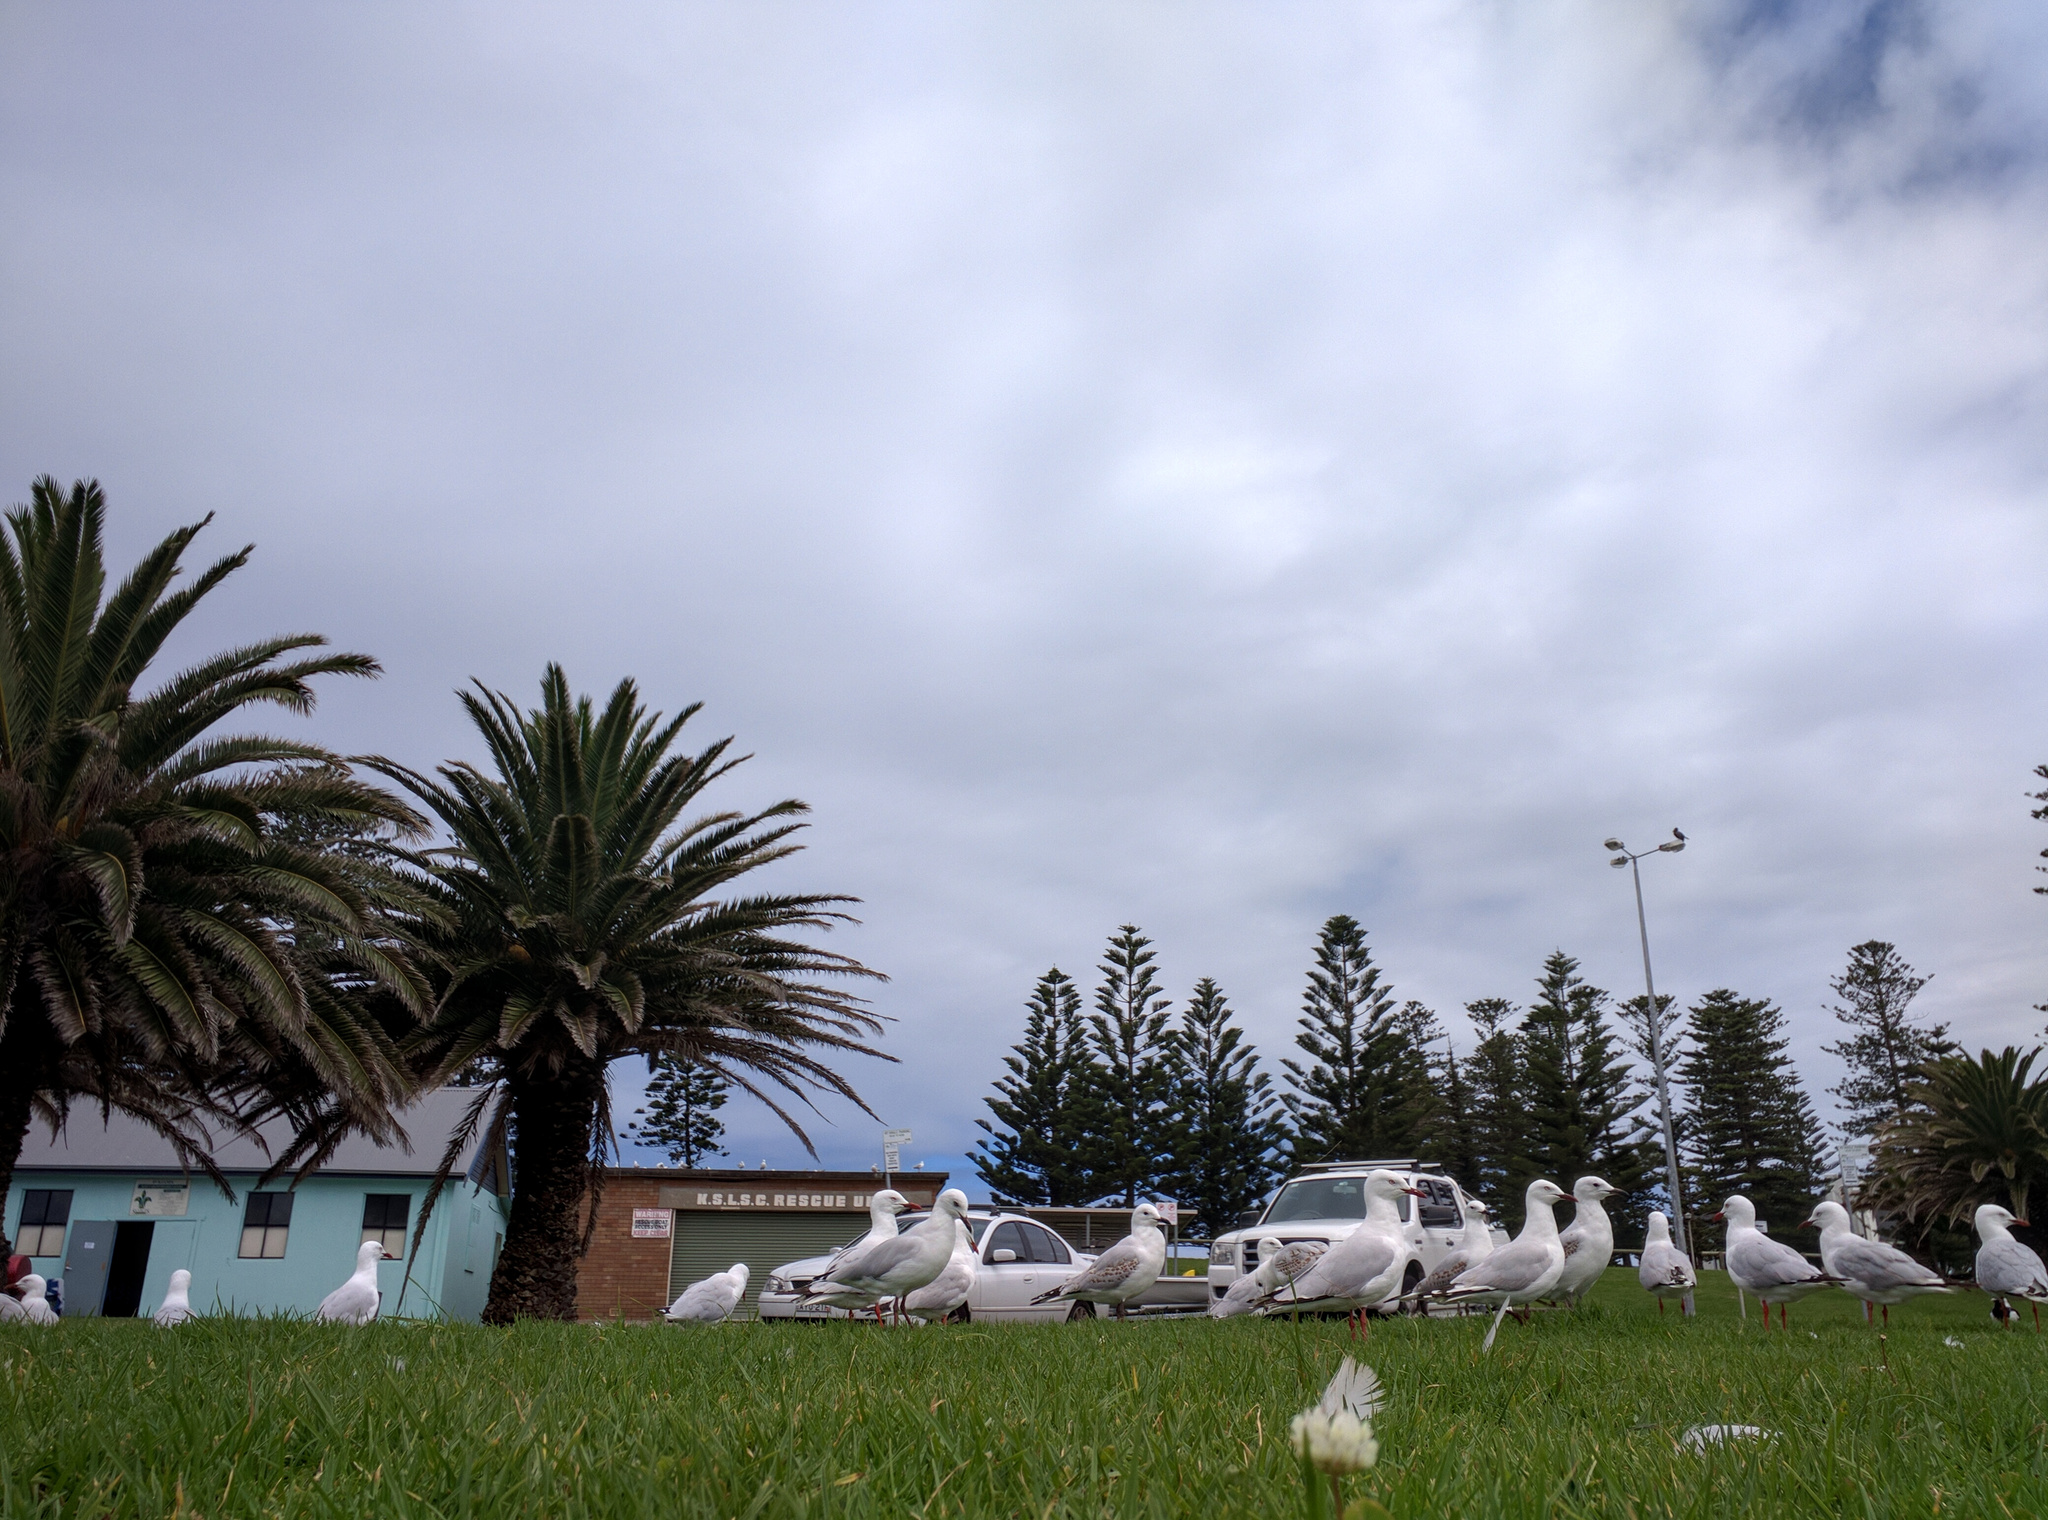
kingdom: Animalia
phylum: Chordata
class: Aves
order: Charadriiformes
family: Laridae
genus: Chroicocephalus
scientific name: Chroicocephalus novaehollandiae
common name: Silver gull
